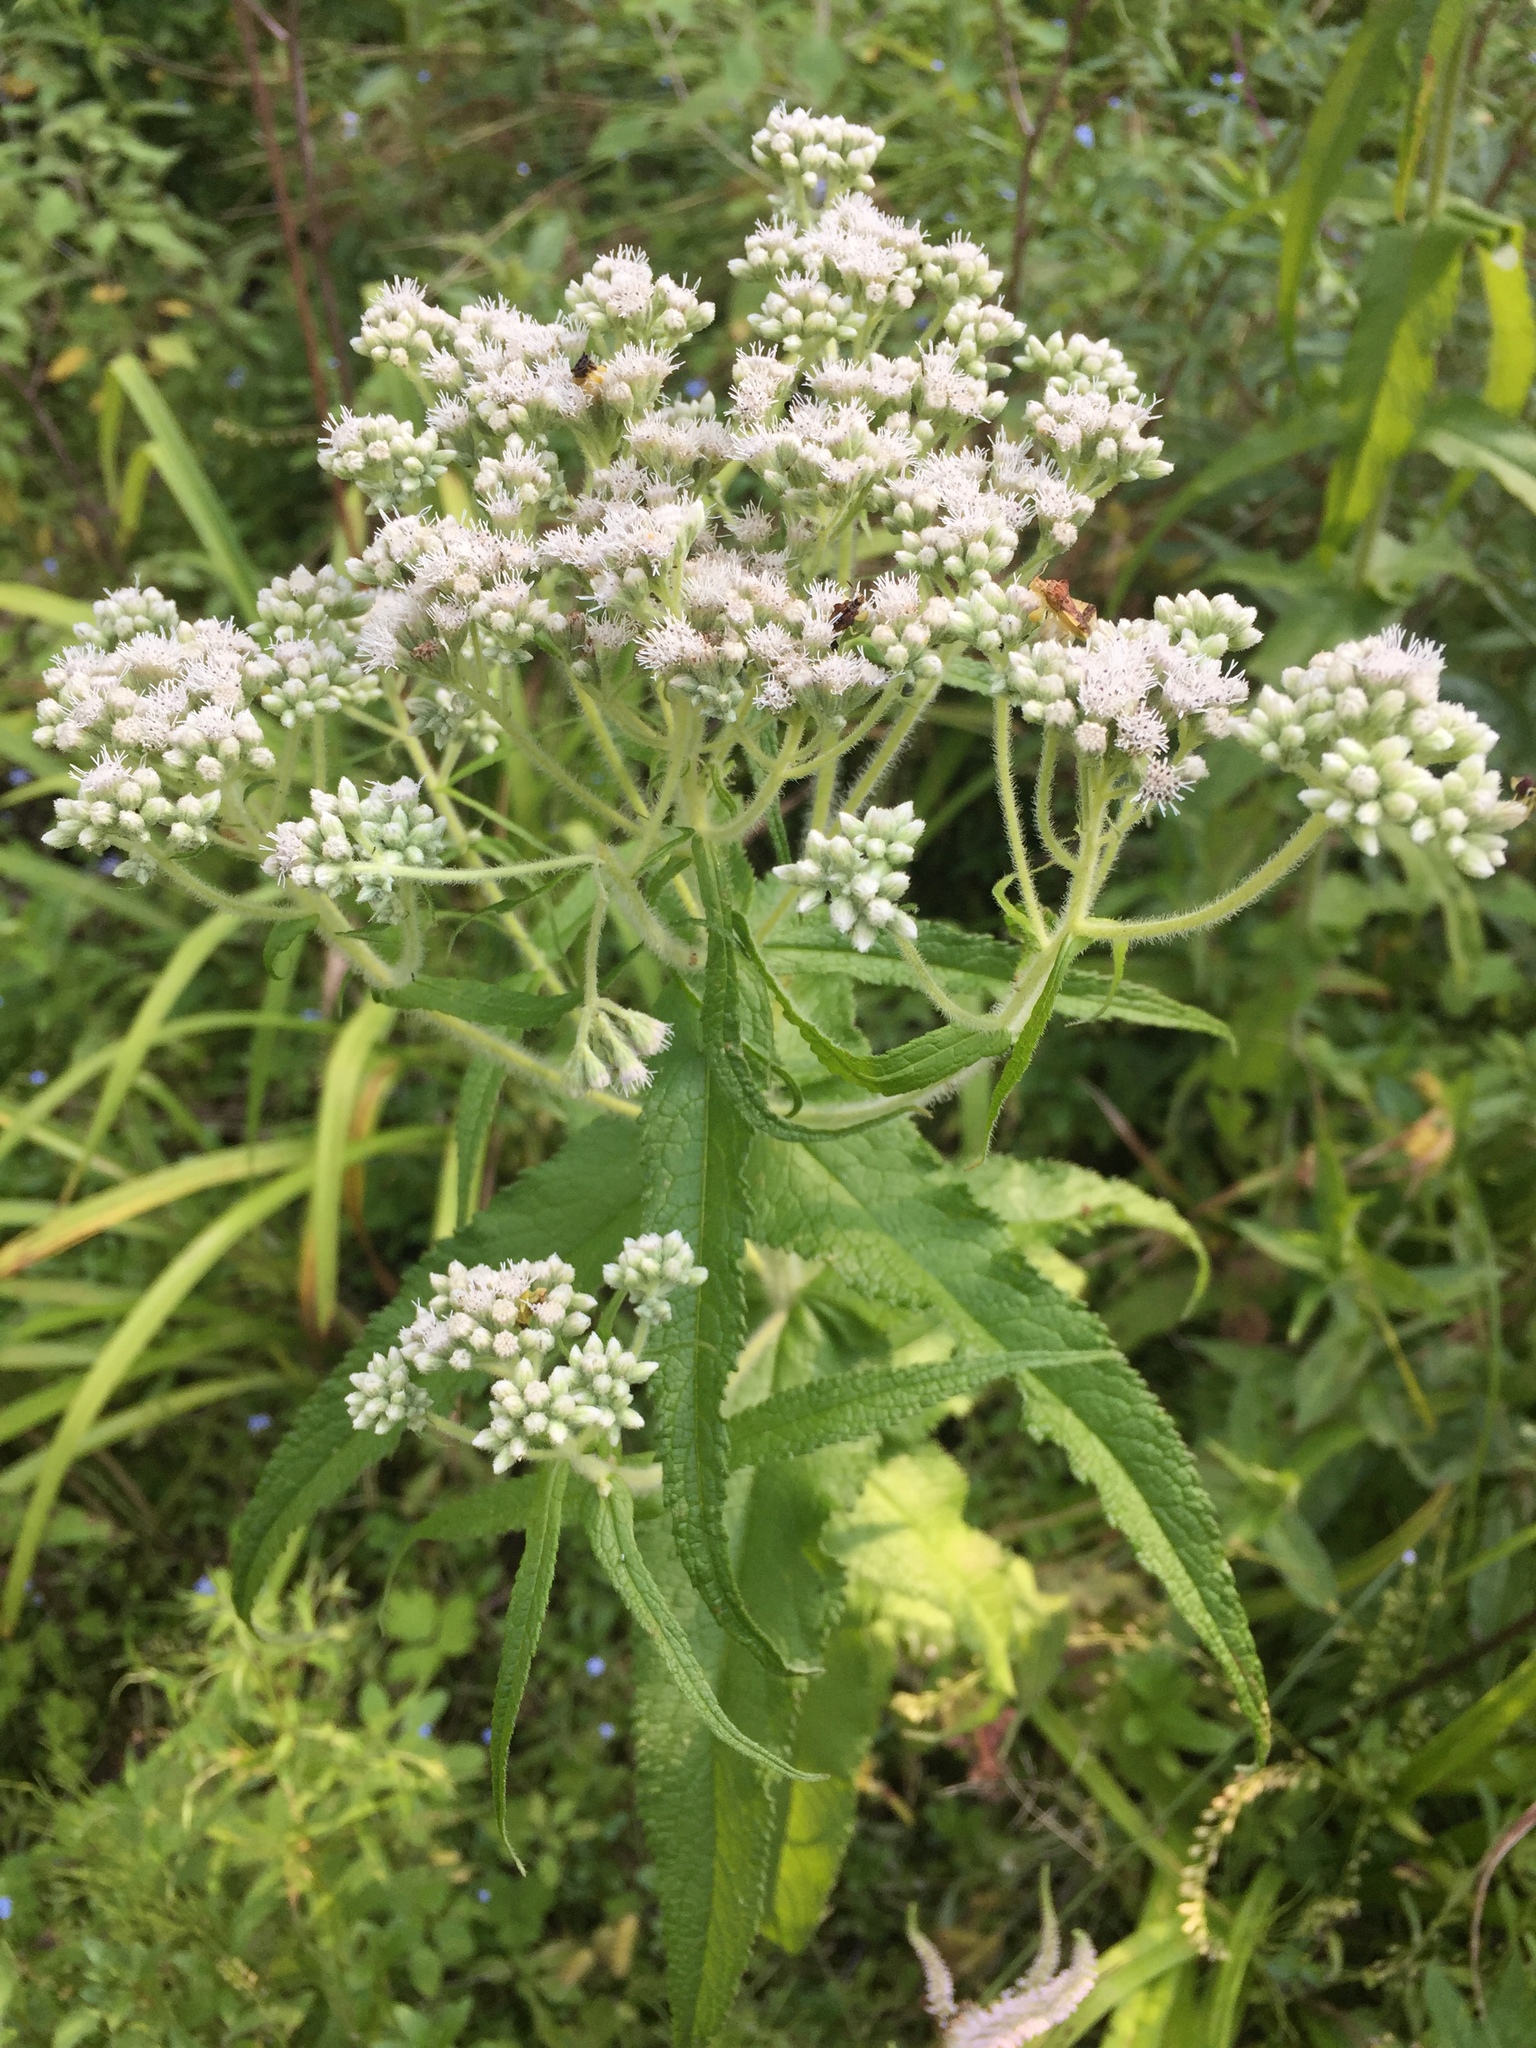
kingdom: Plantae
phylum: Tracheophyta
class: Magnoliopsida
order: Asterales
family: Asteraceae
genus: Eupatorium
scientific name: Eupatorium perfoliatum
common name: Boneset
